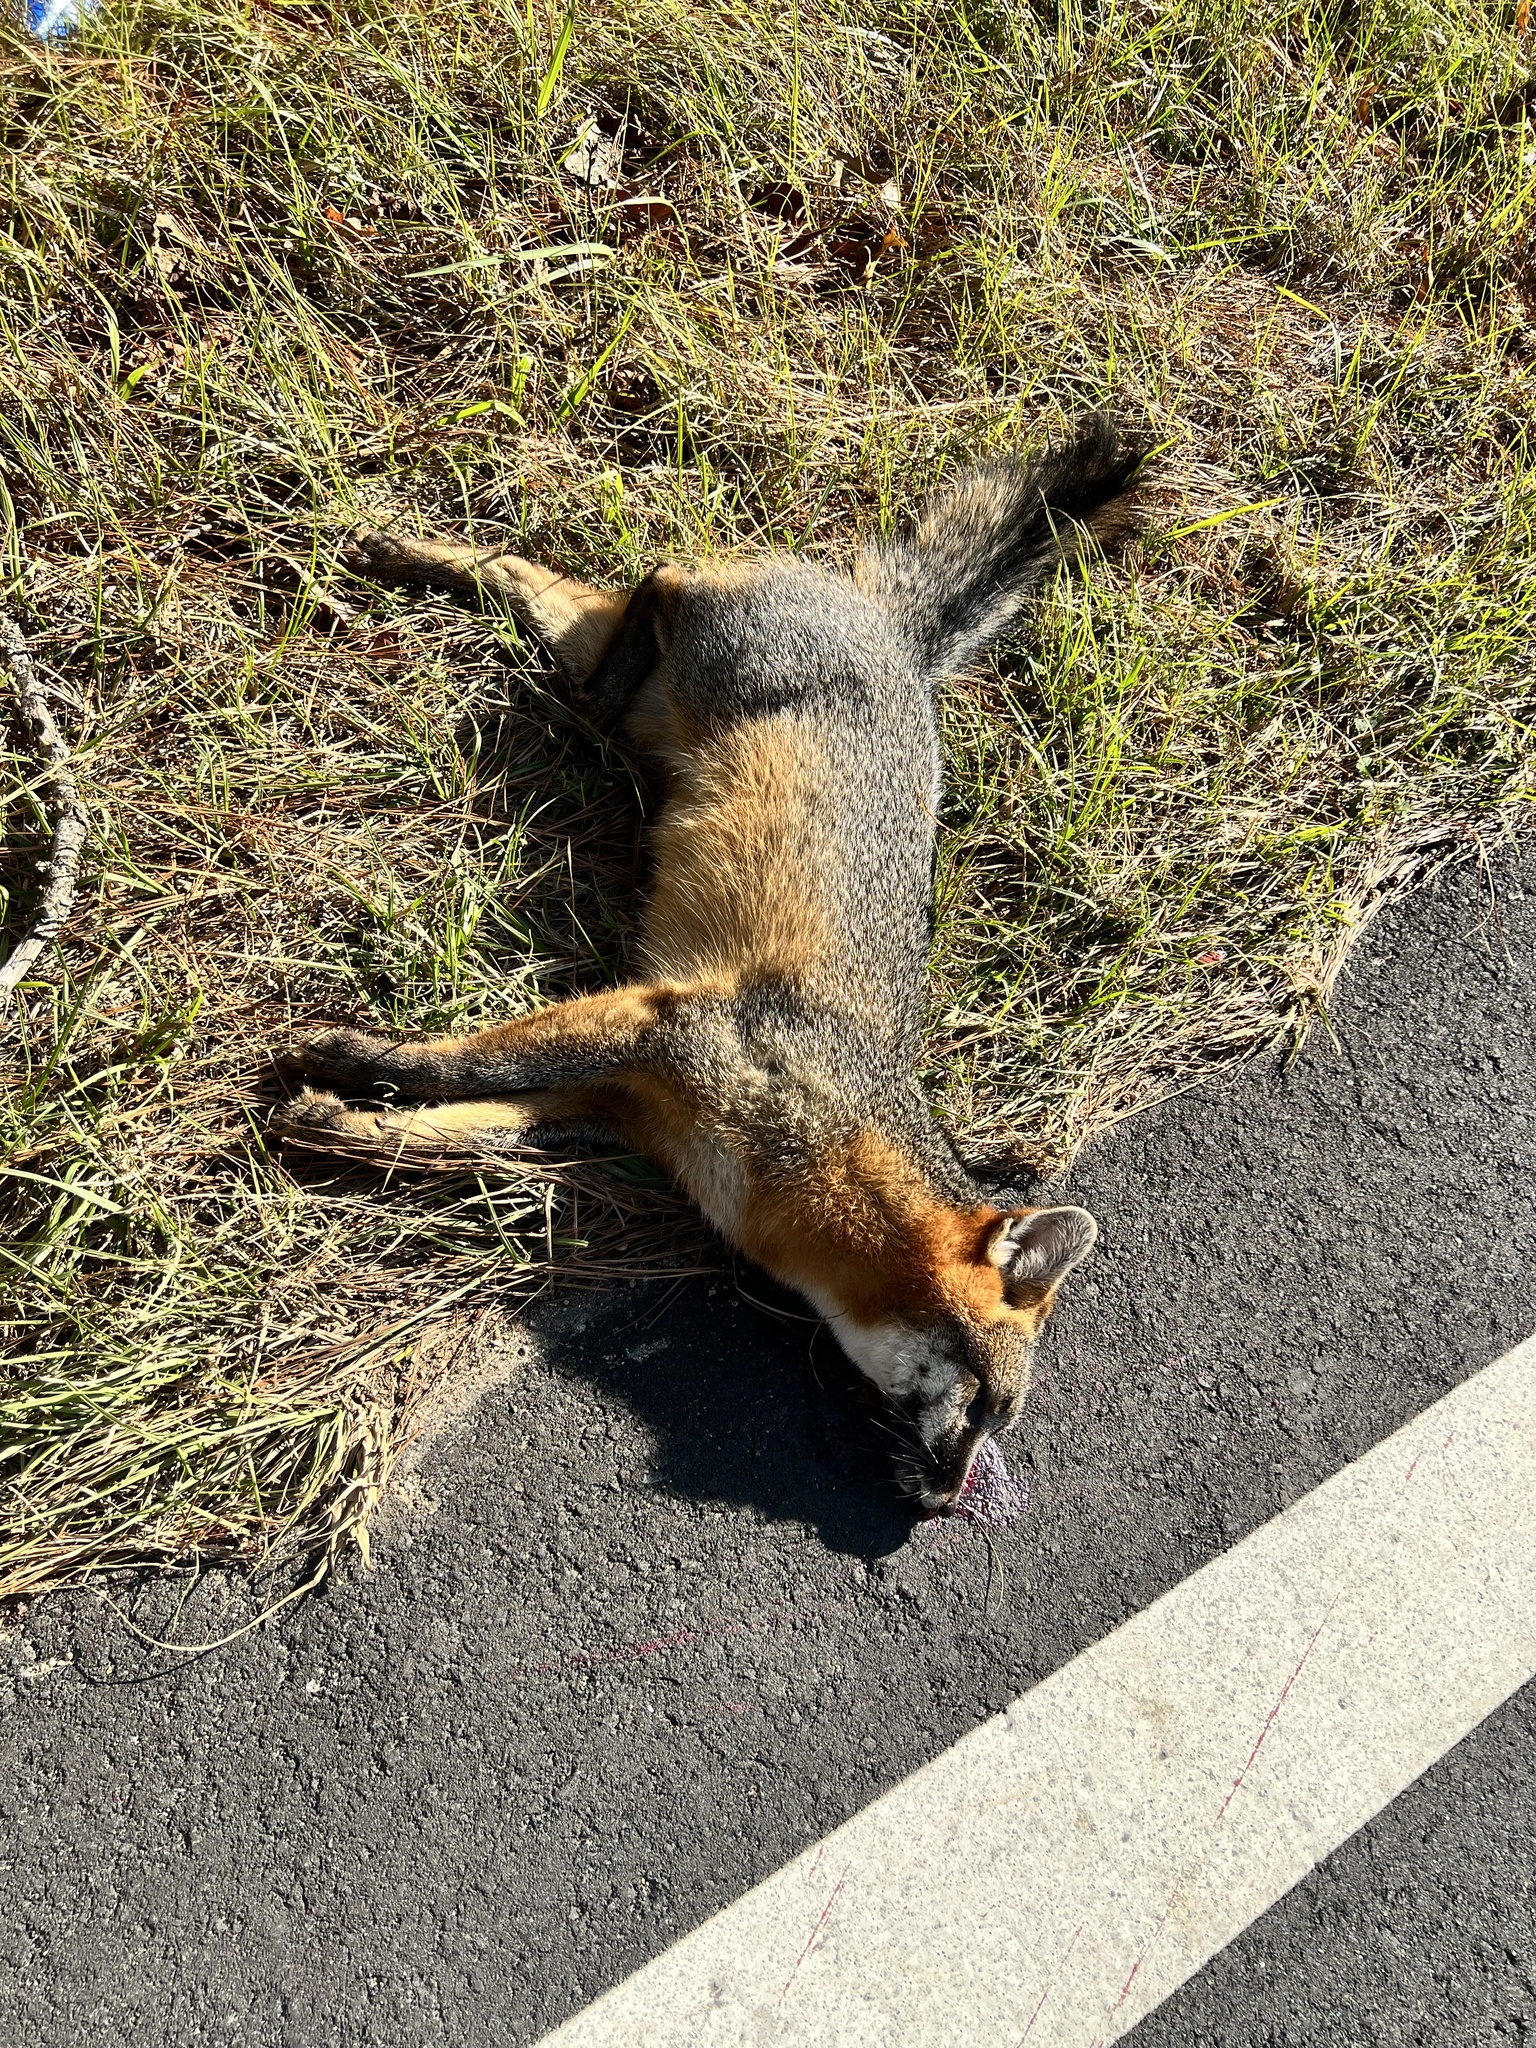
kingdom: Animalia
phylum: Chordata
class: Mammalia
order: Carnivora
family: Canidae
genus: Urocyon
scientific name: Urocyon cinereoargenteus
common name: Gray fox
